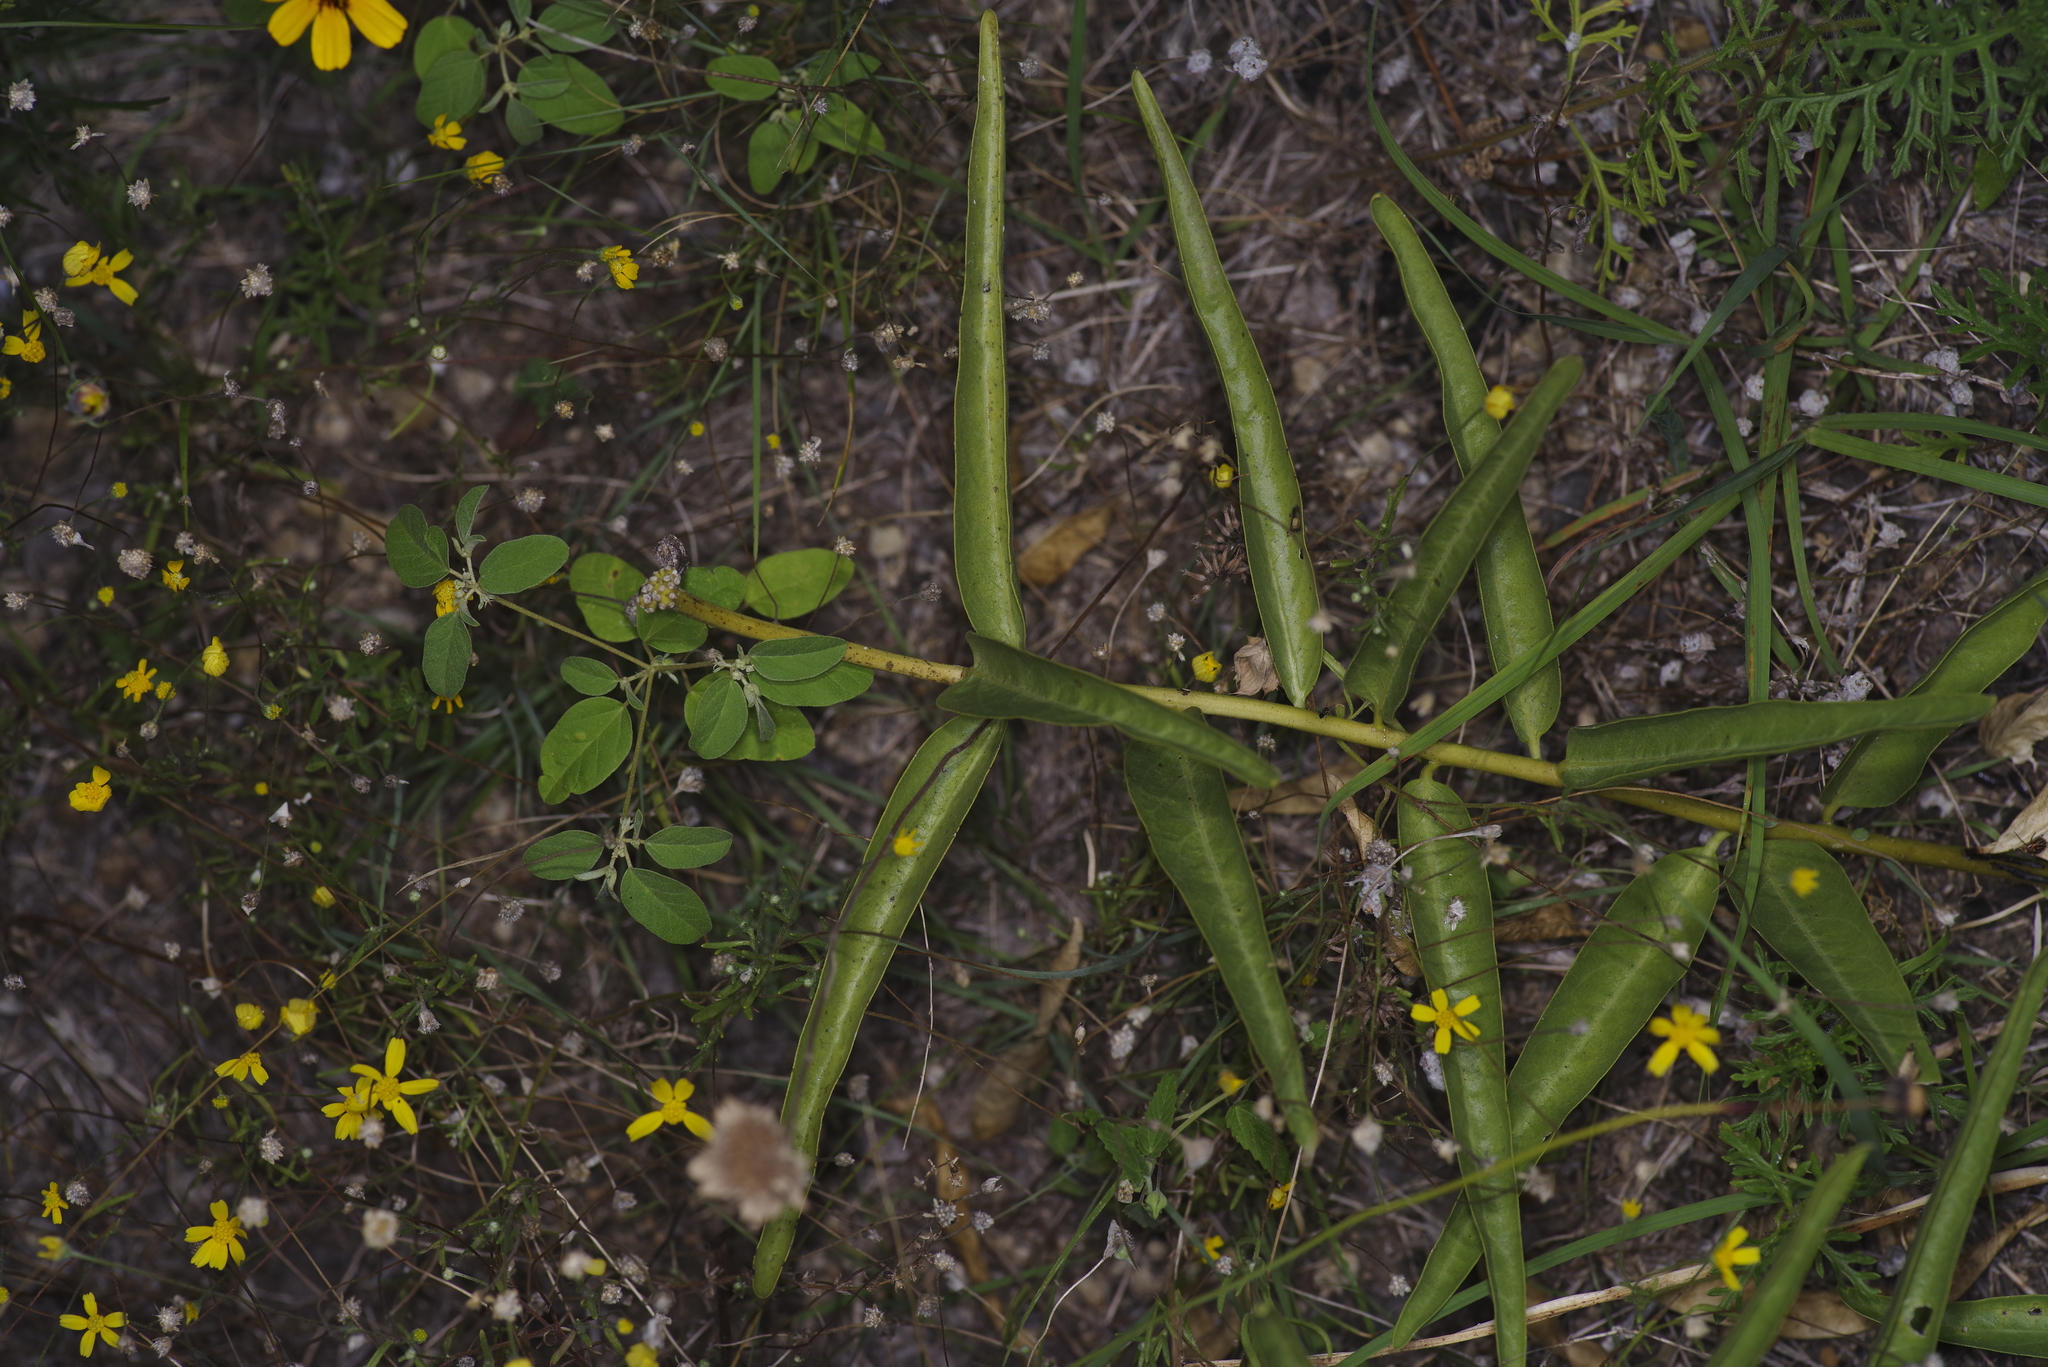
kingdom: Plantae
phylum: Tracheophyta
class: Magnoliopsida
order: Gentianales
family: Apocynaceae
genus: Asclepias
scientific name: Asclepias asperula
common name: Antelope horns
